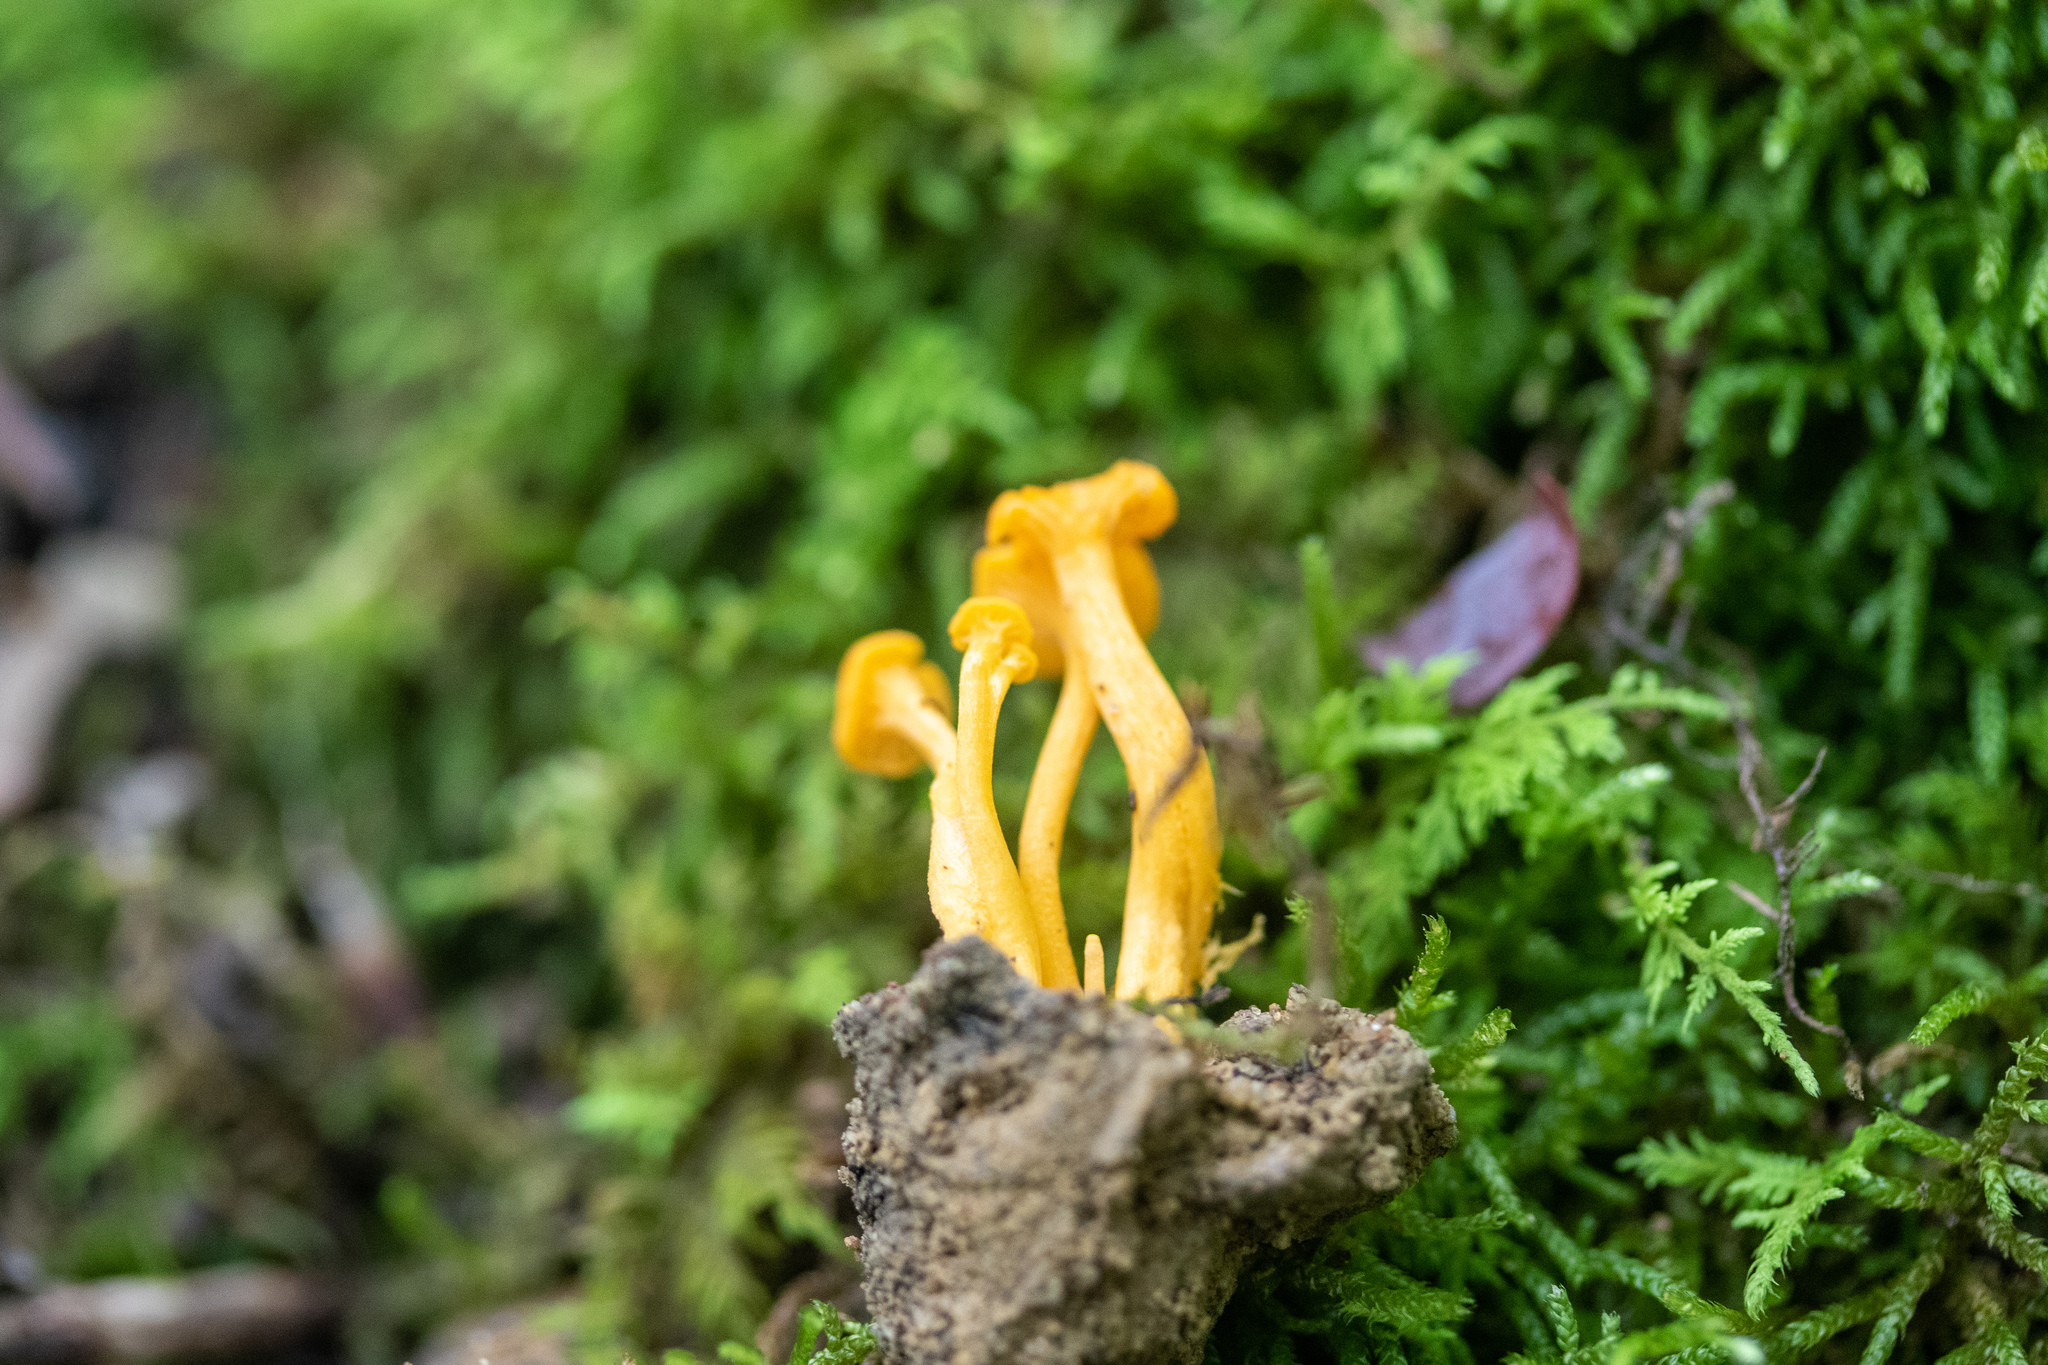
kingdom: Fungi
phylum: Basidiomycota
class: Agaricomycetes
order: Cantharellales
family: Hydnaceae
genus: Cantharellus
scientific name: Cantharellus minor
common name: Small chanterelle
